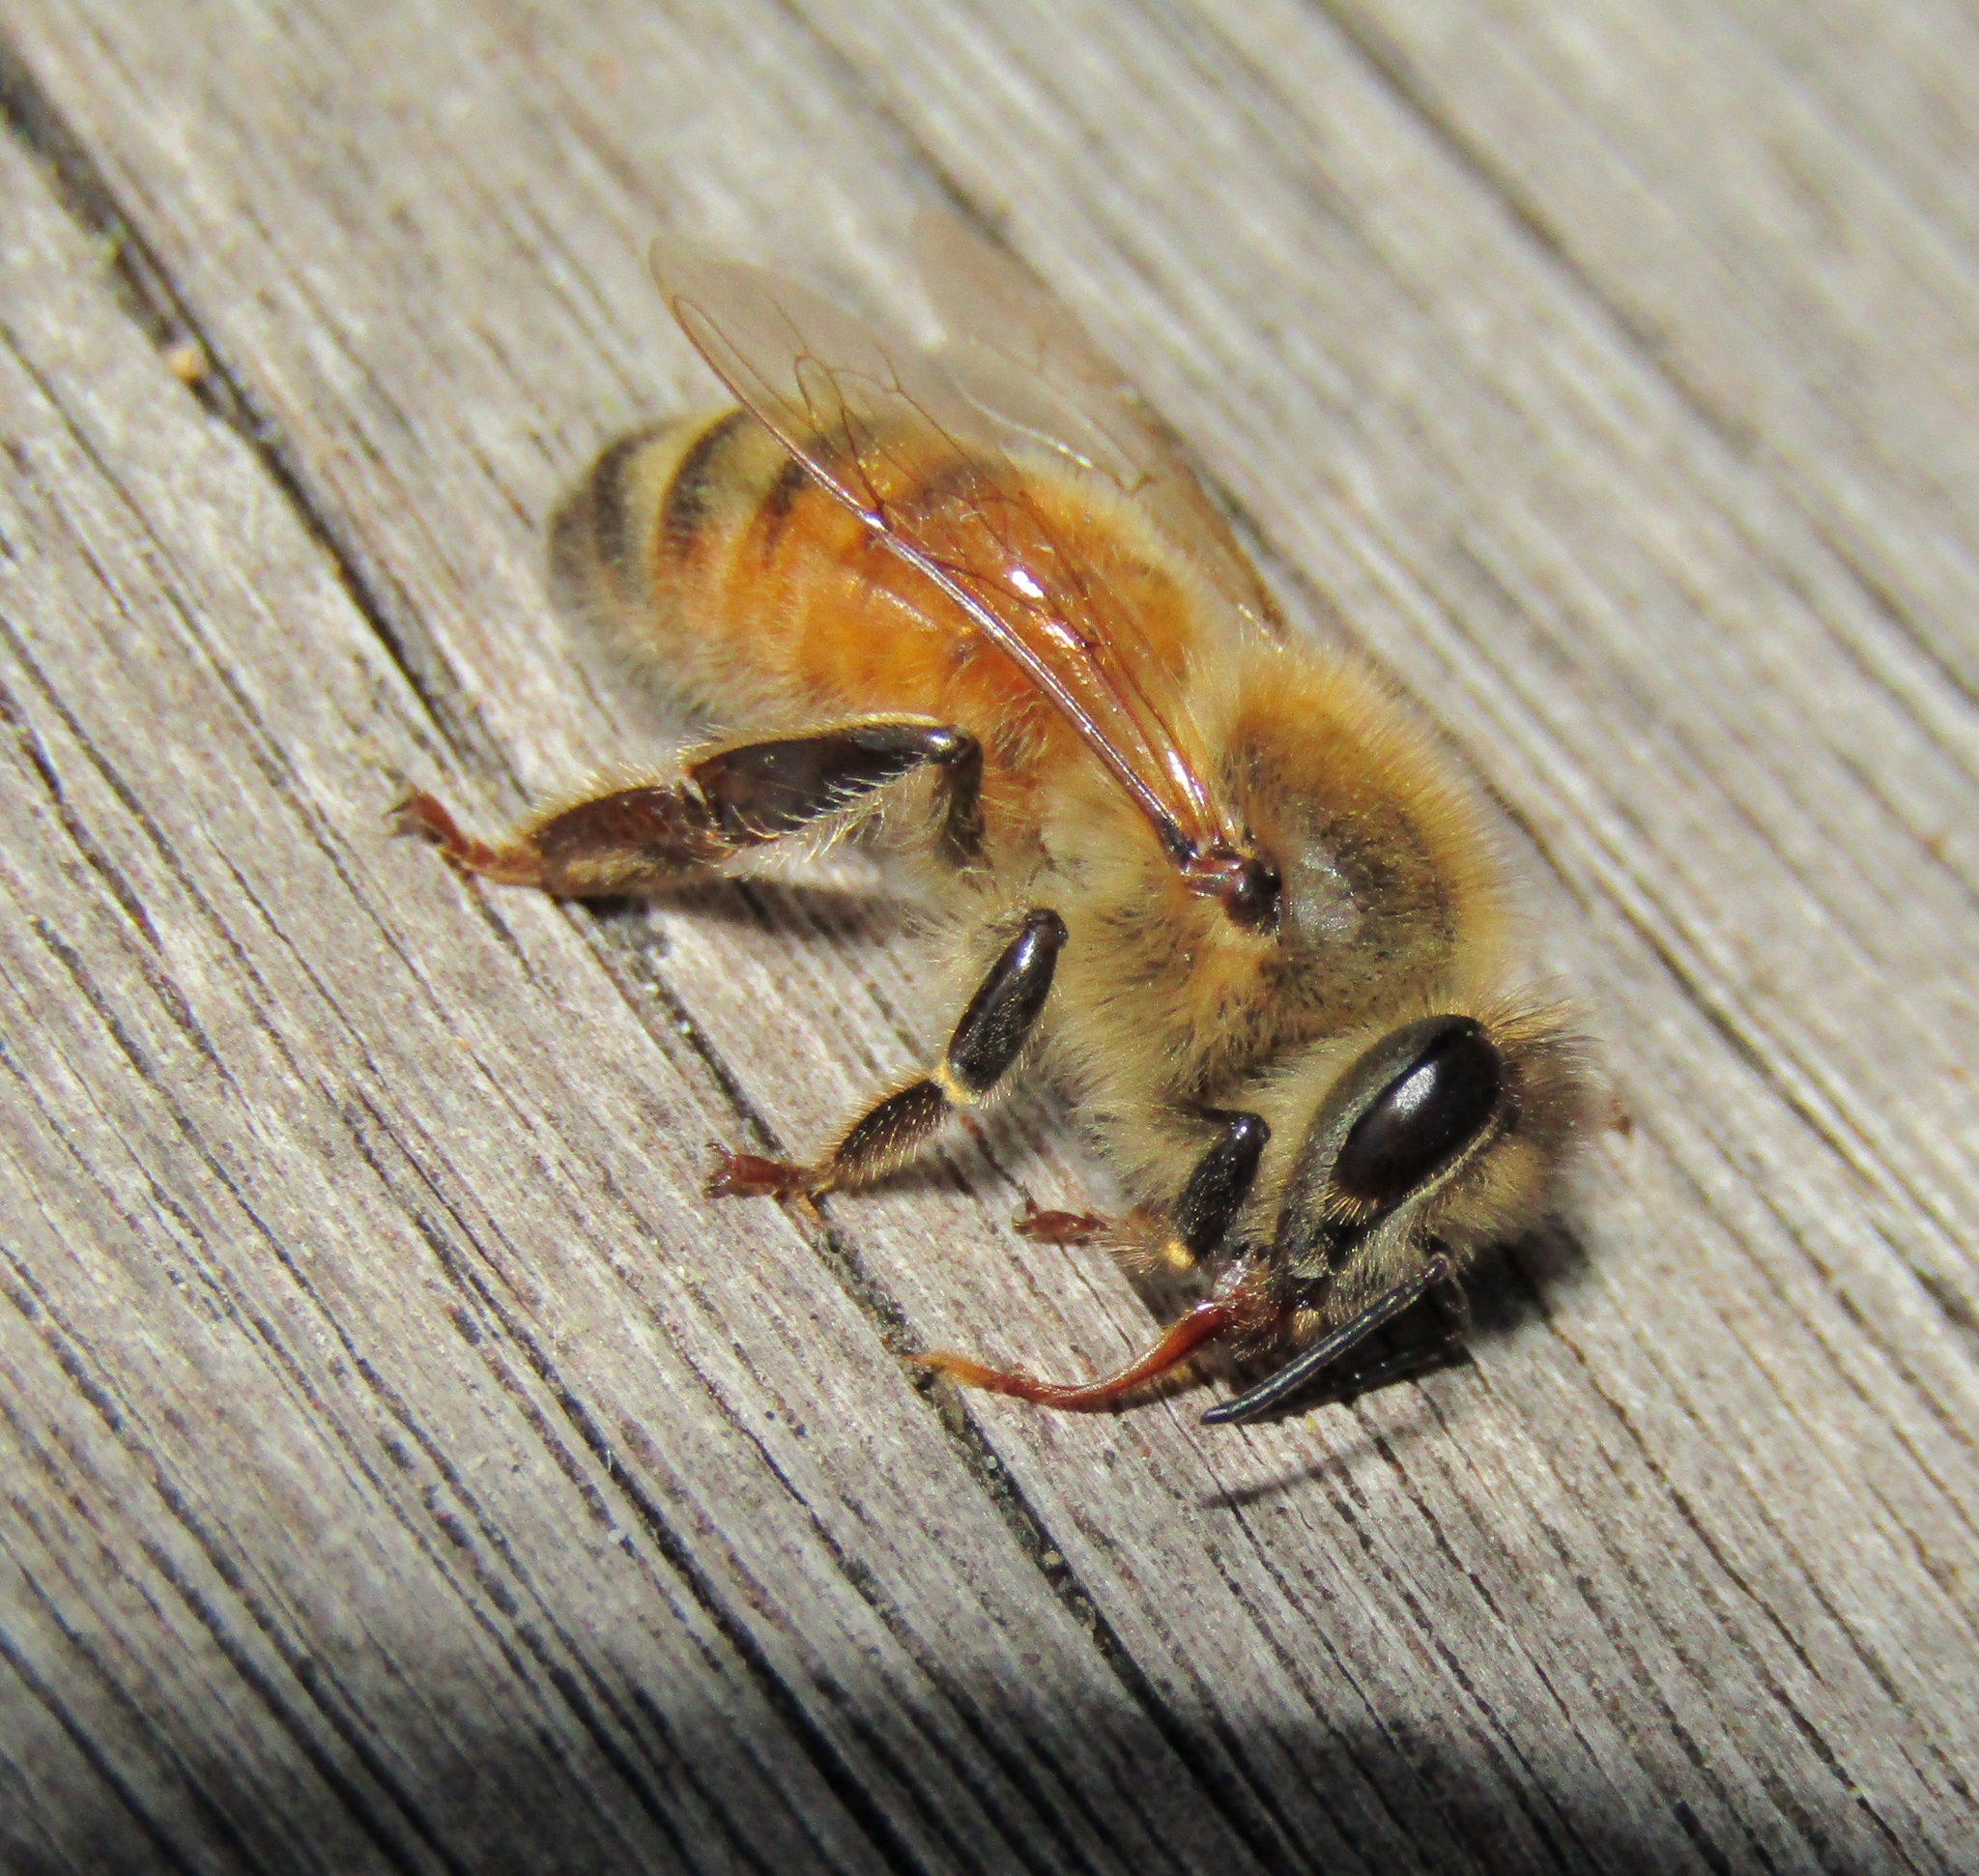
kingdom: Animalia
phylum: Arthropoda
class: Insecta
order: Hymenoptera
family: Apidae
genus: Apis
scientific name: Apis mellifera
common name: Honey bee
